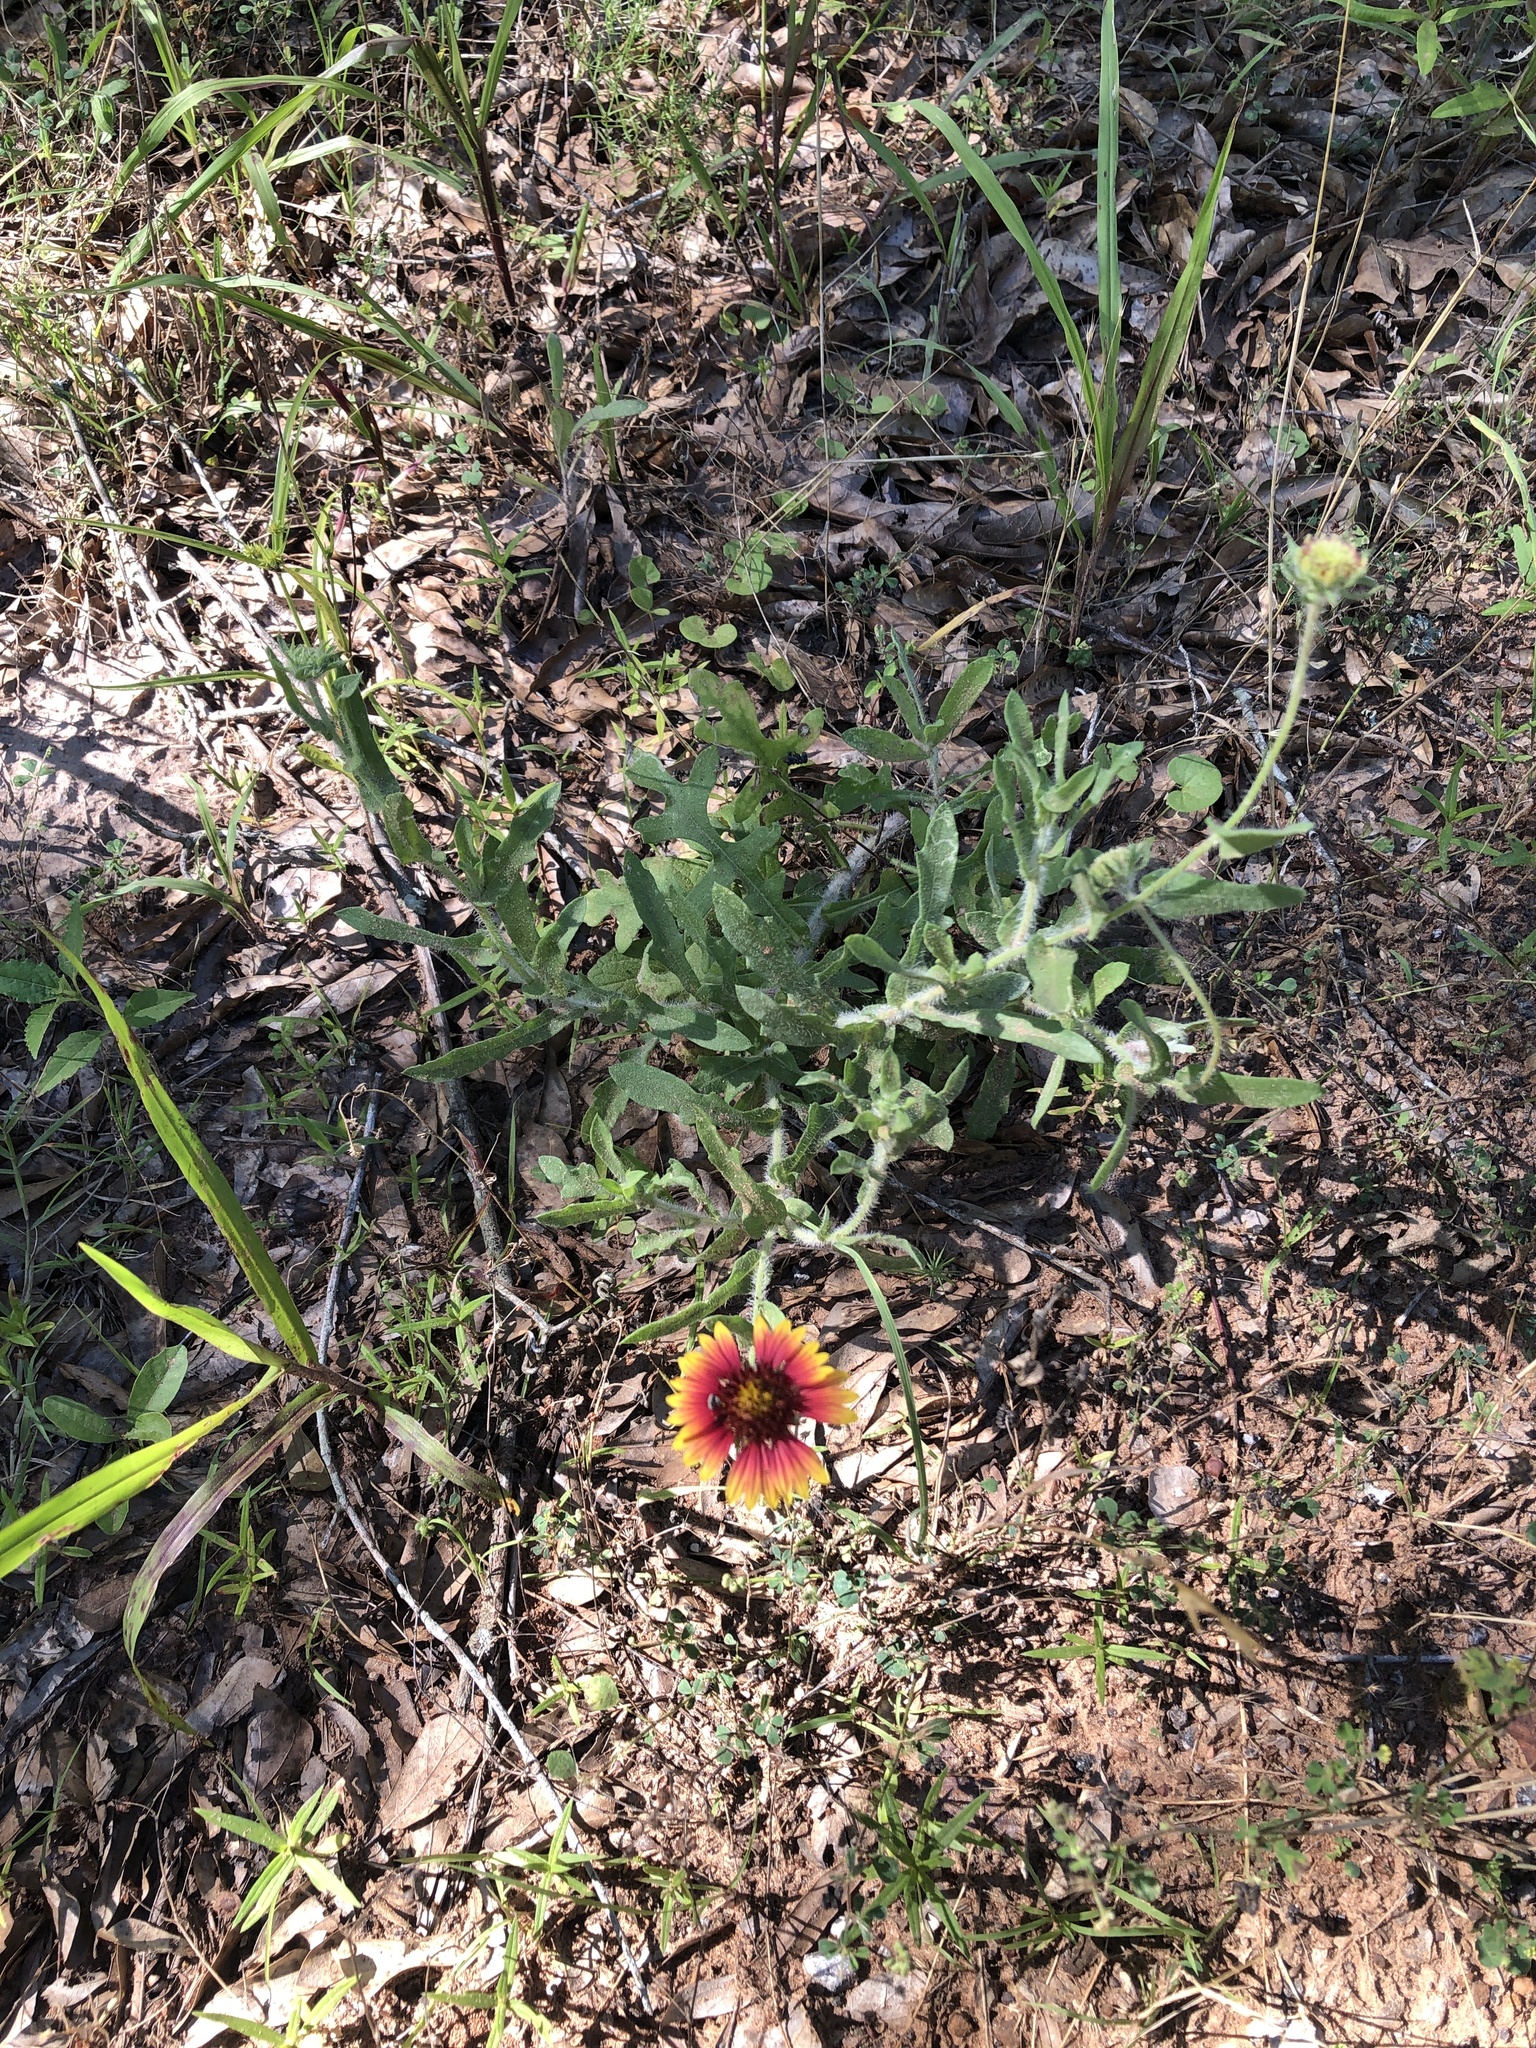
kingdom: Plantae
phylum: Tracheophyta
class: Magnoliopsida
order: Asterales
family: Asteraceae
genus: Gaillardia
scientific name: Gaillardia pulchella
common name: Firewheel
